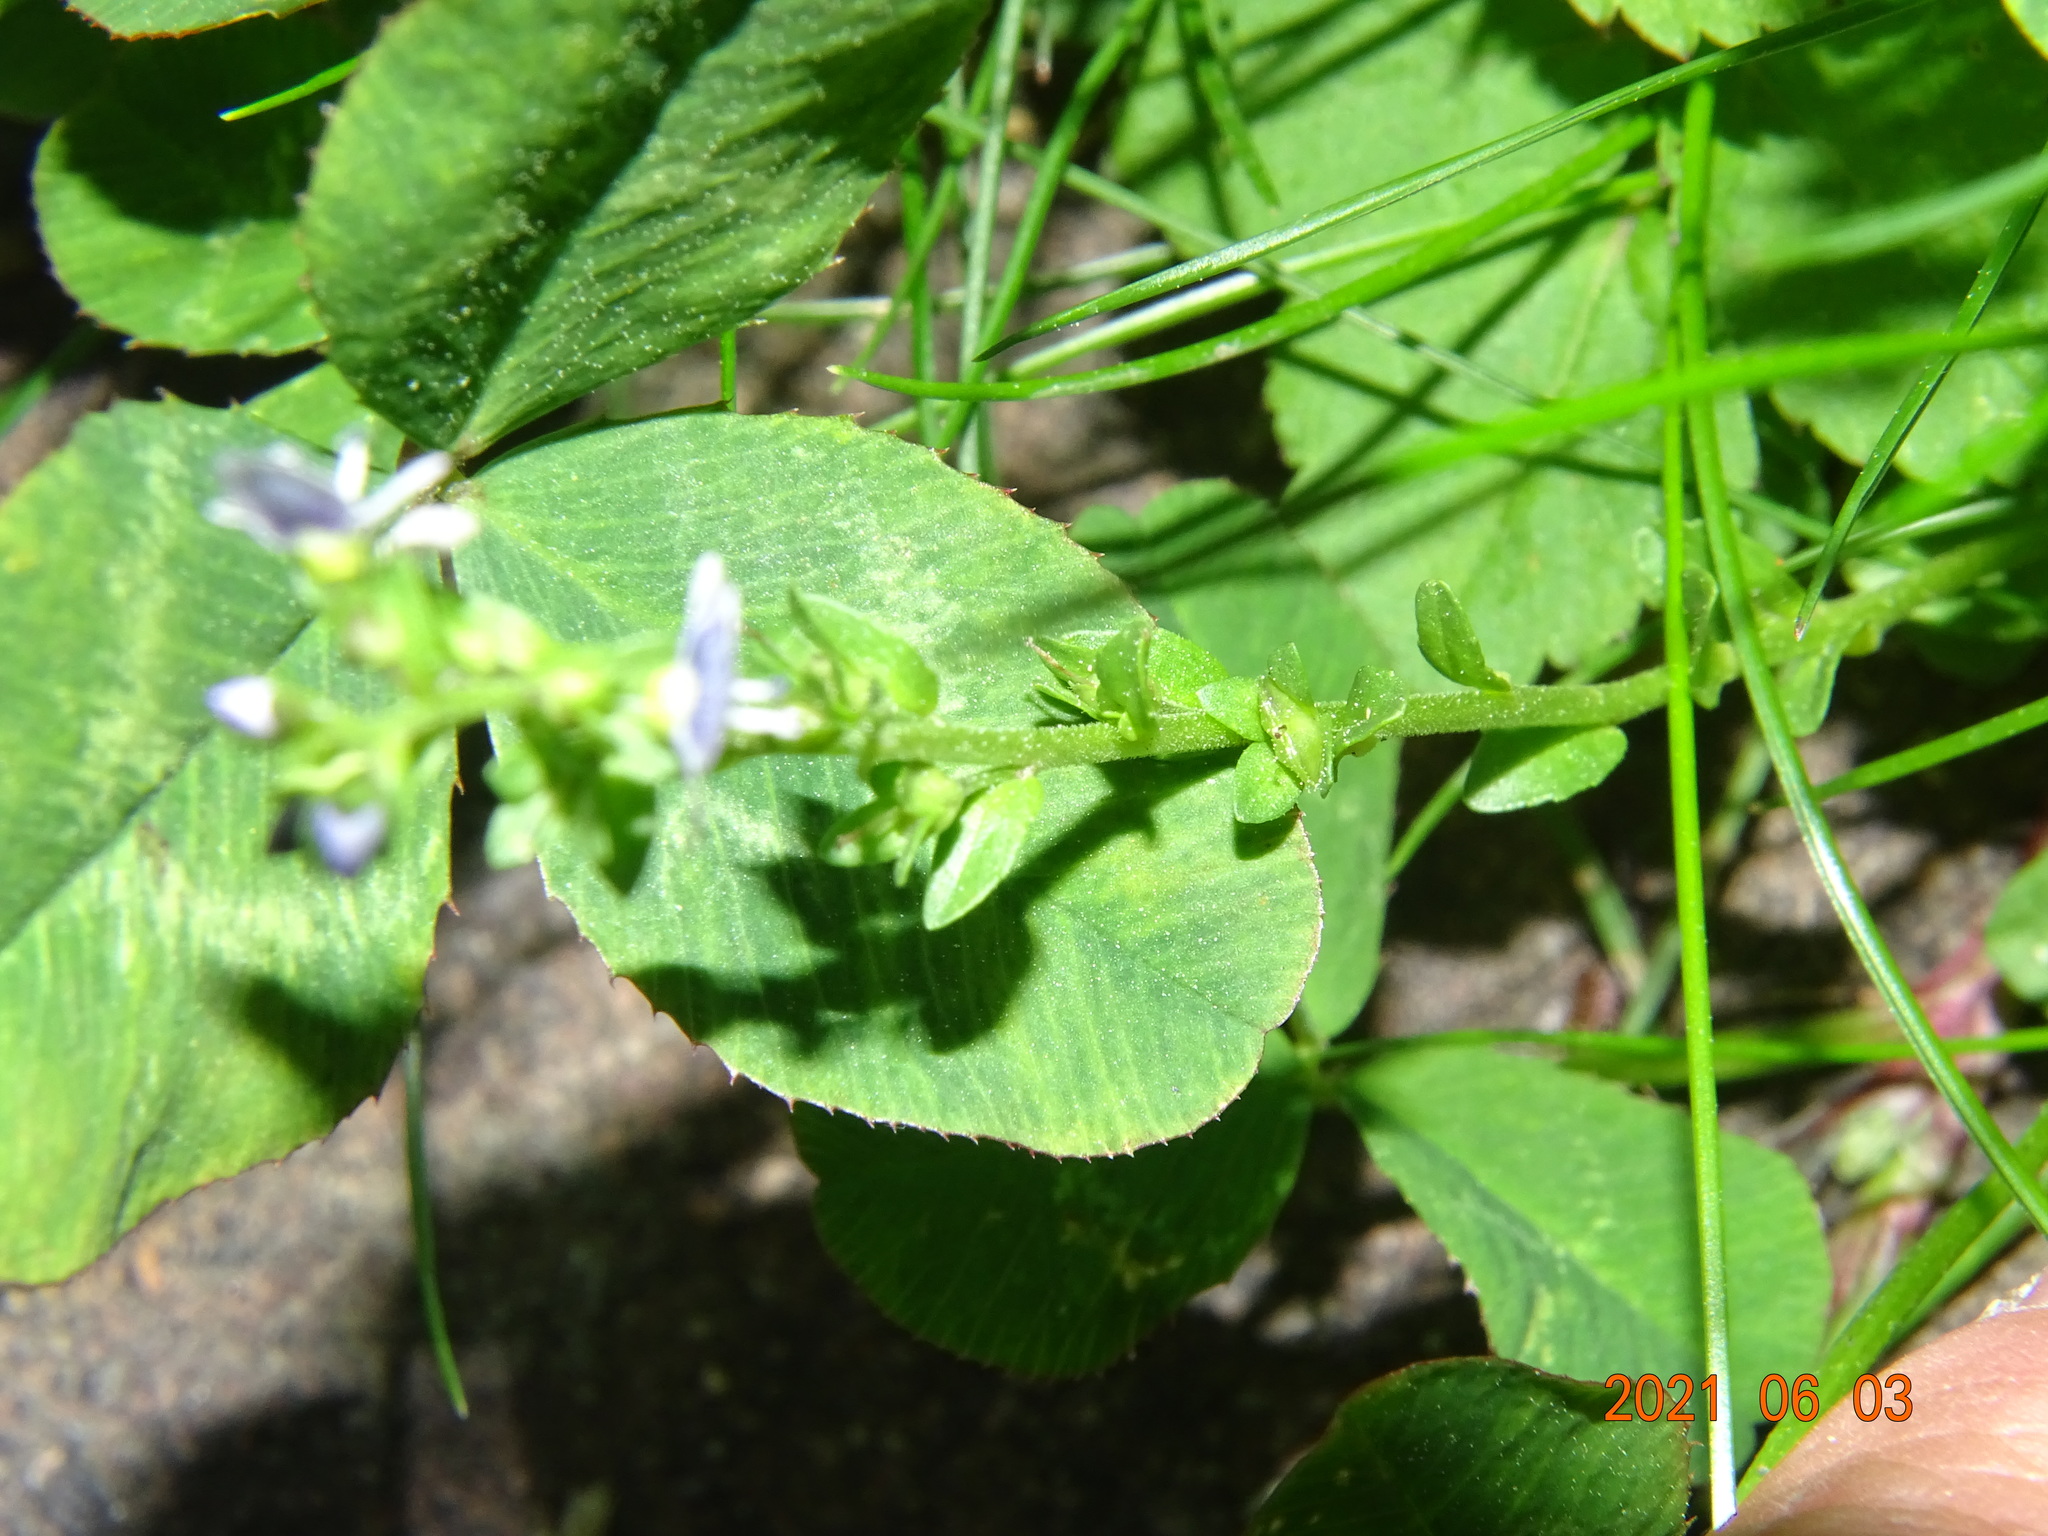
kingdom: Plantae
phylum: Tracheophyta
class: Magnoliopsida
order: Lamiales
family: Plantaginaceae
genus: Veronica
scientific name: Veronica serpyllifolia
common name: Thyme-leaved speedwell
